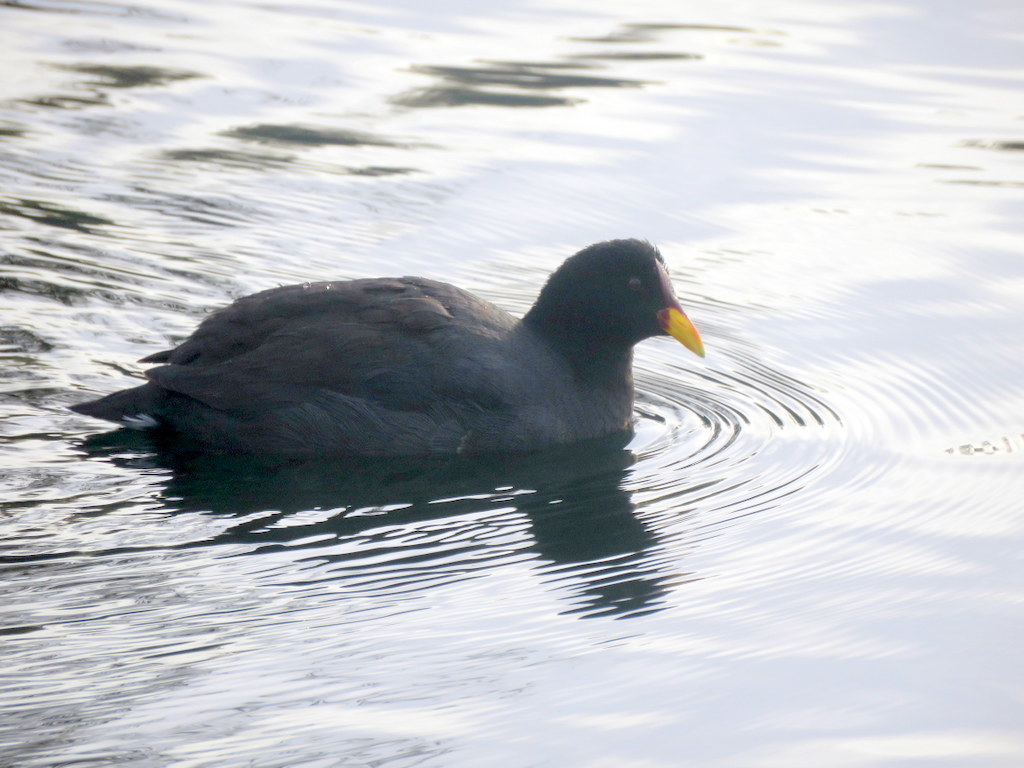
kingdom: Animalia
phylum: Chordata
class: Aves
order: Gruiformes
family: Rallidae
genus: Fulica
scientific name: Fulica rufifrons
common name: Red-fronted coot
